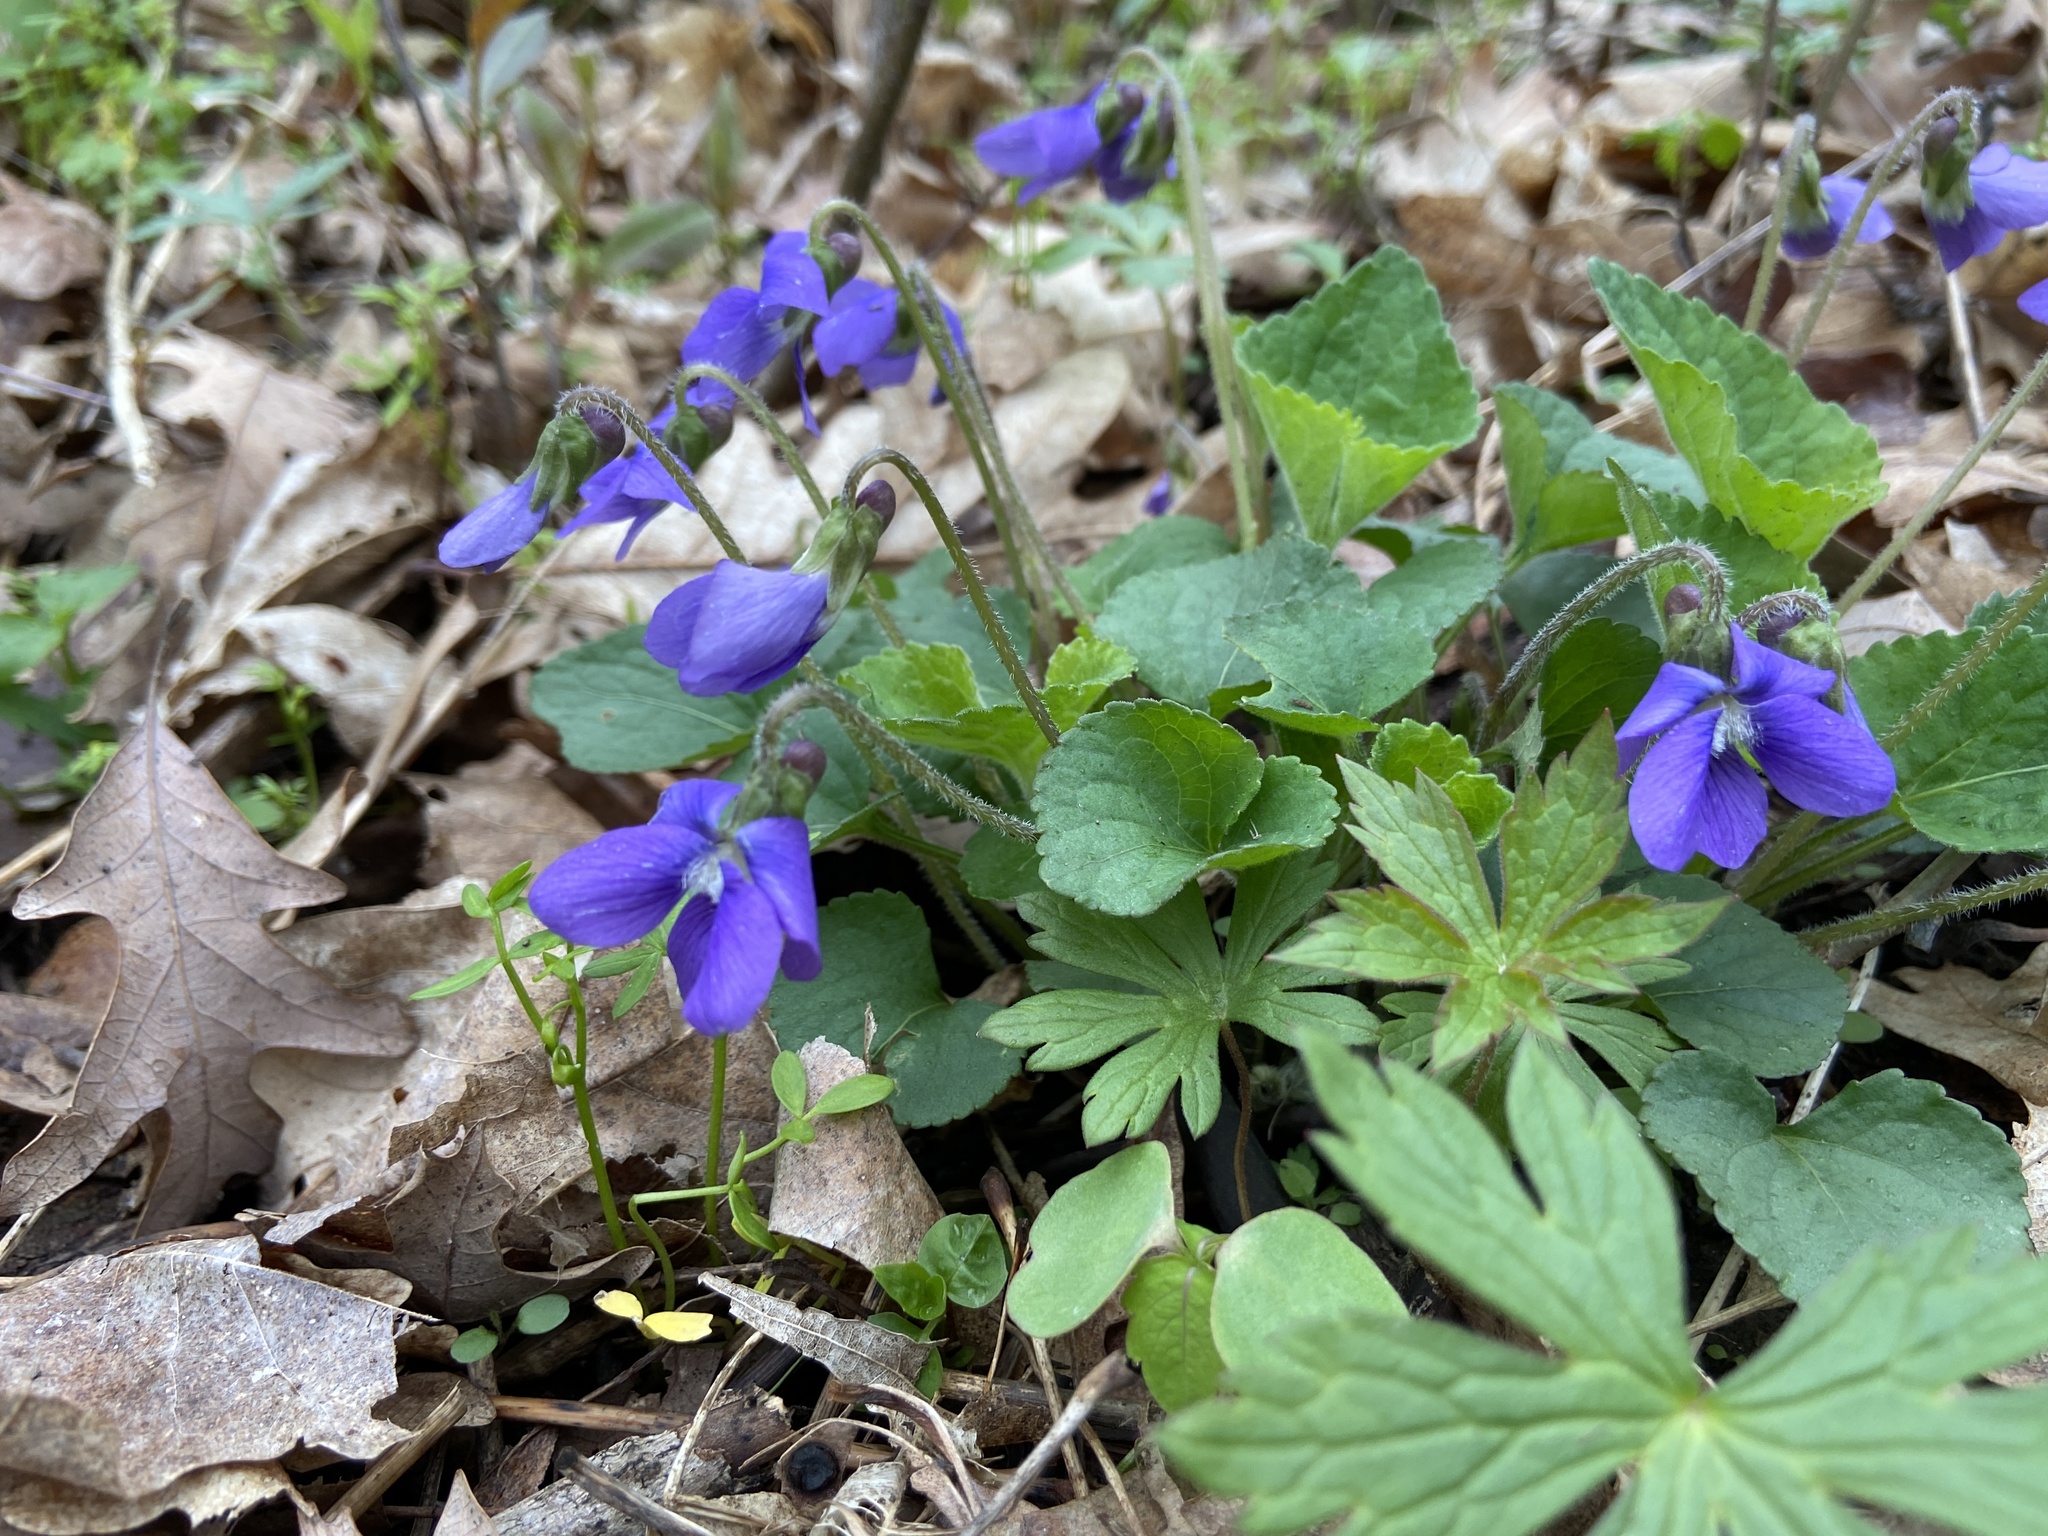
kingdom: Plantae
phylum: Tracheophyta
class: Magnoliopsida
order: Malpighiales
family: Violaceae
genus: Viola
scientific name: Viola sororia
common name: Dooryard violet
